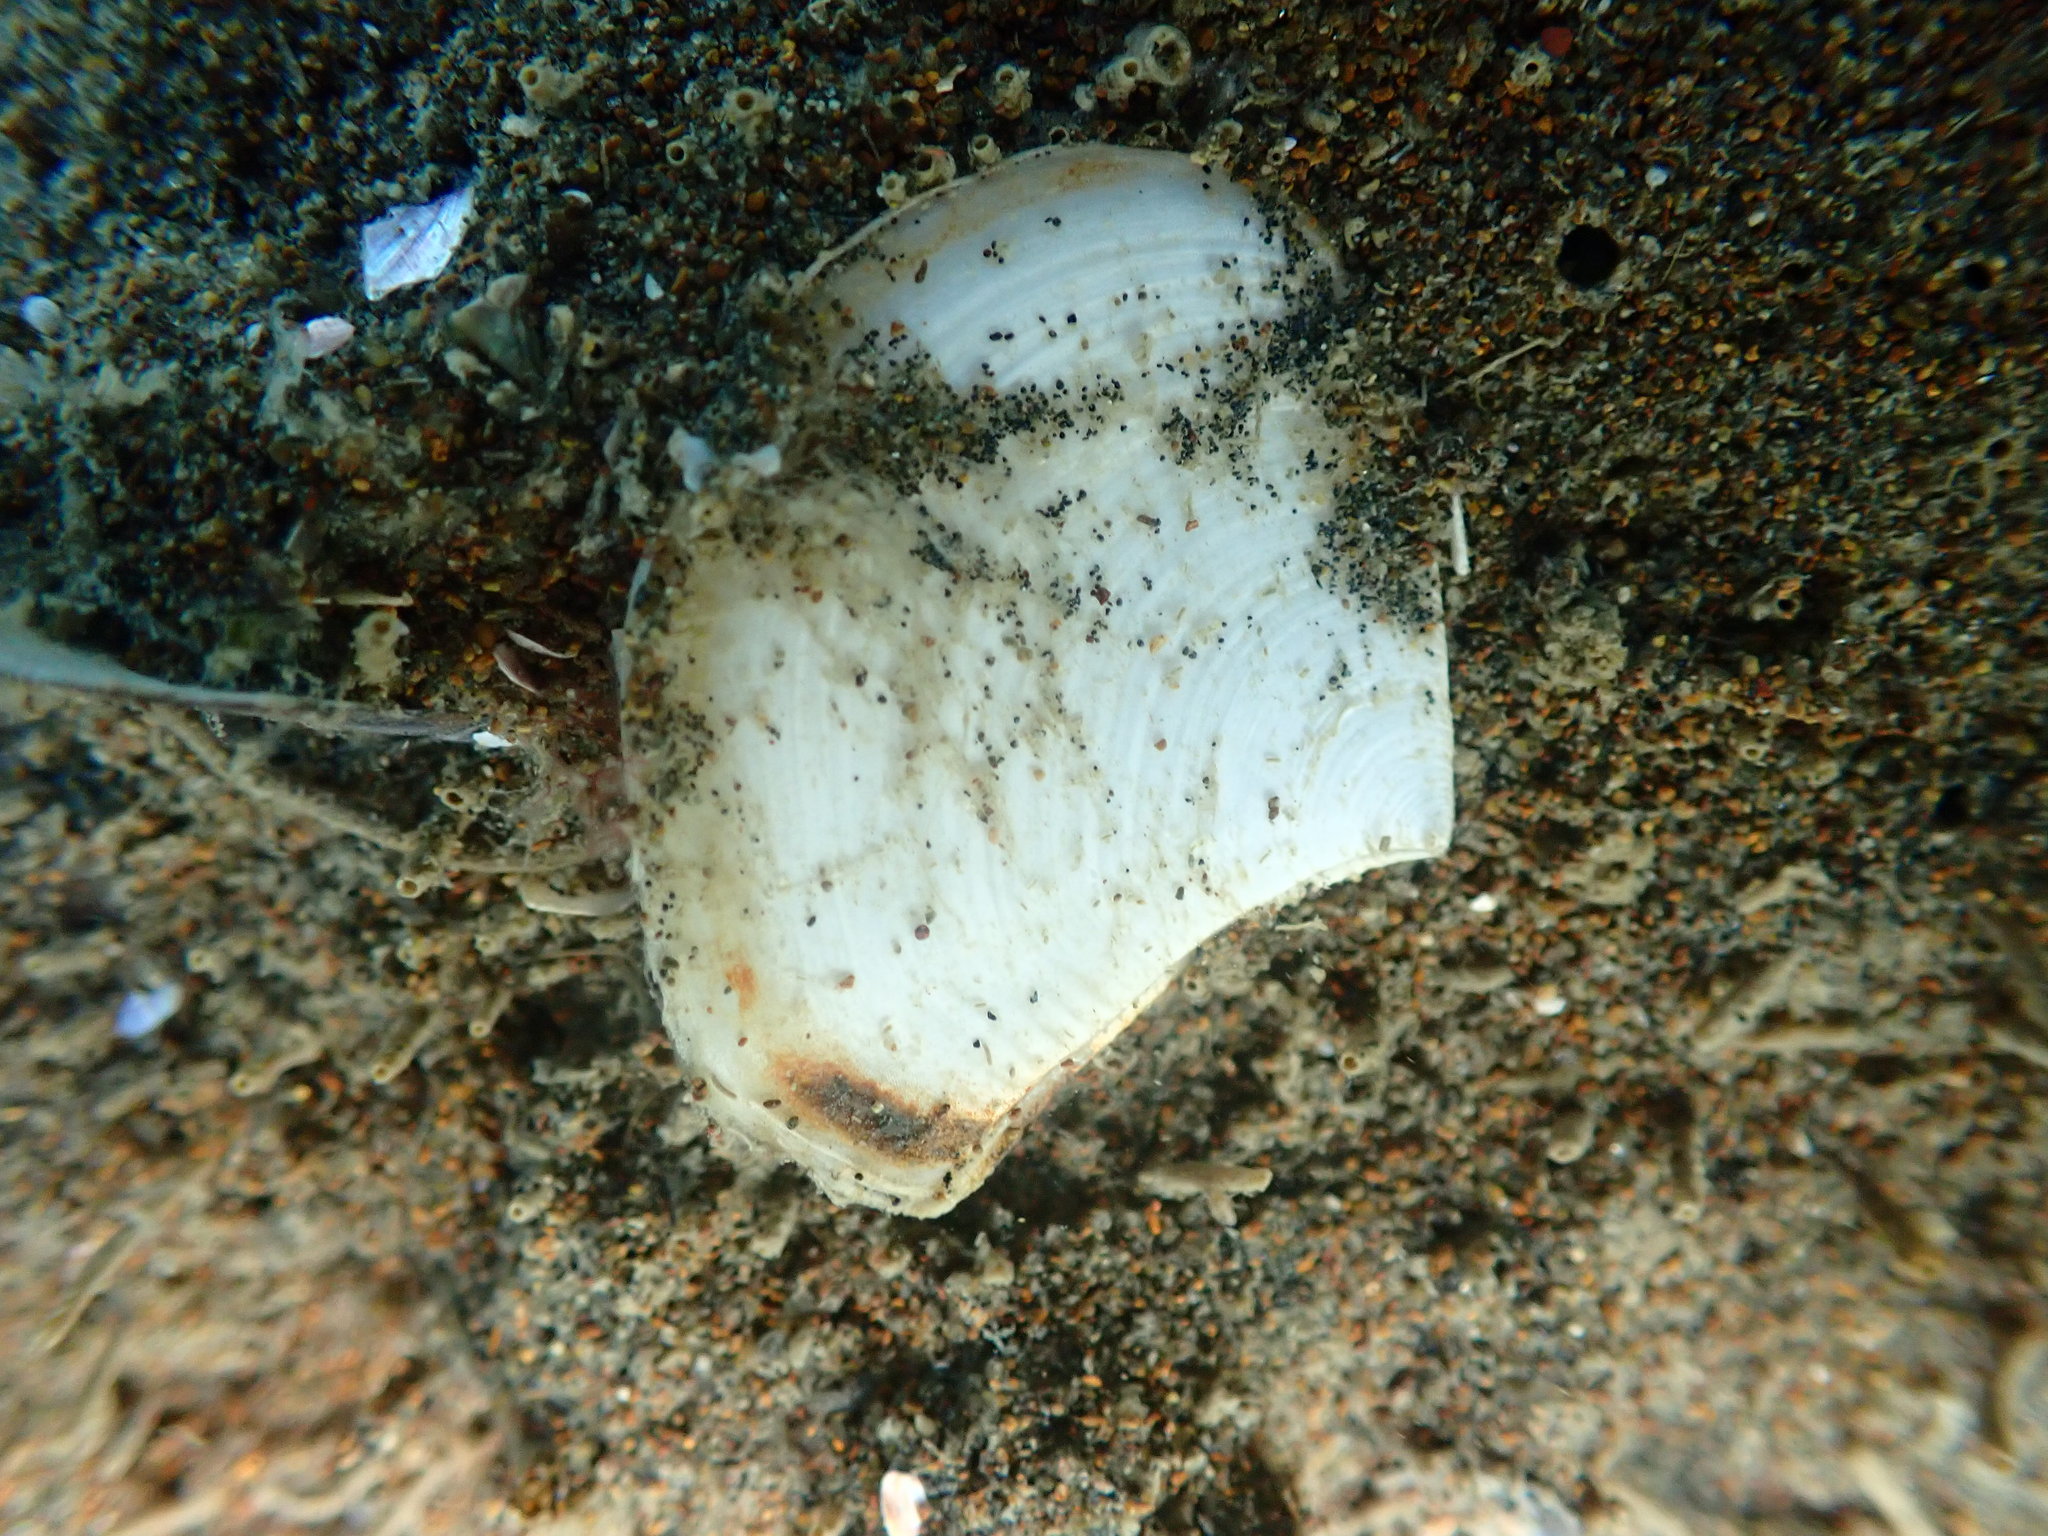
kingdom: Animalia
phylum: Mollusca
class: Bivalvia
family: Myochamidae
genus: Myadora
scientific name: Myadora striata
